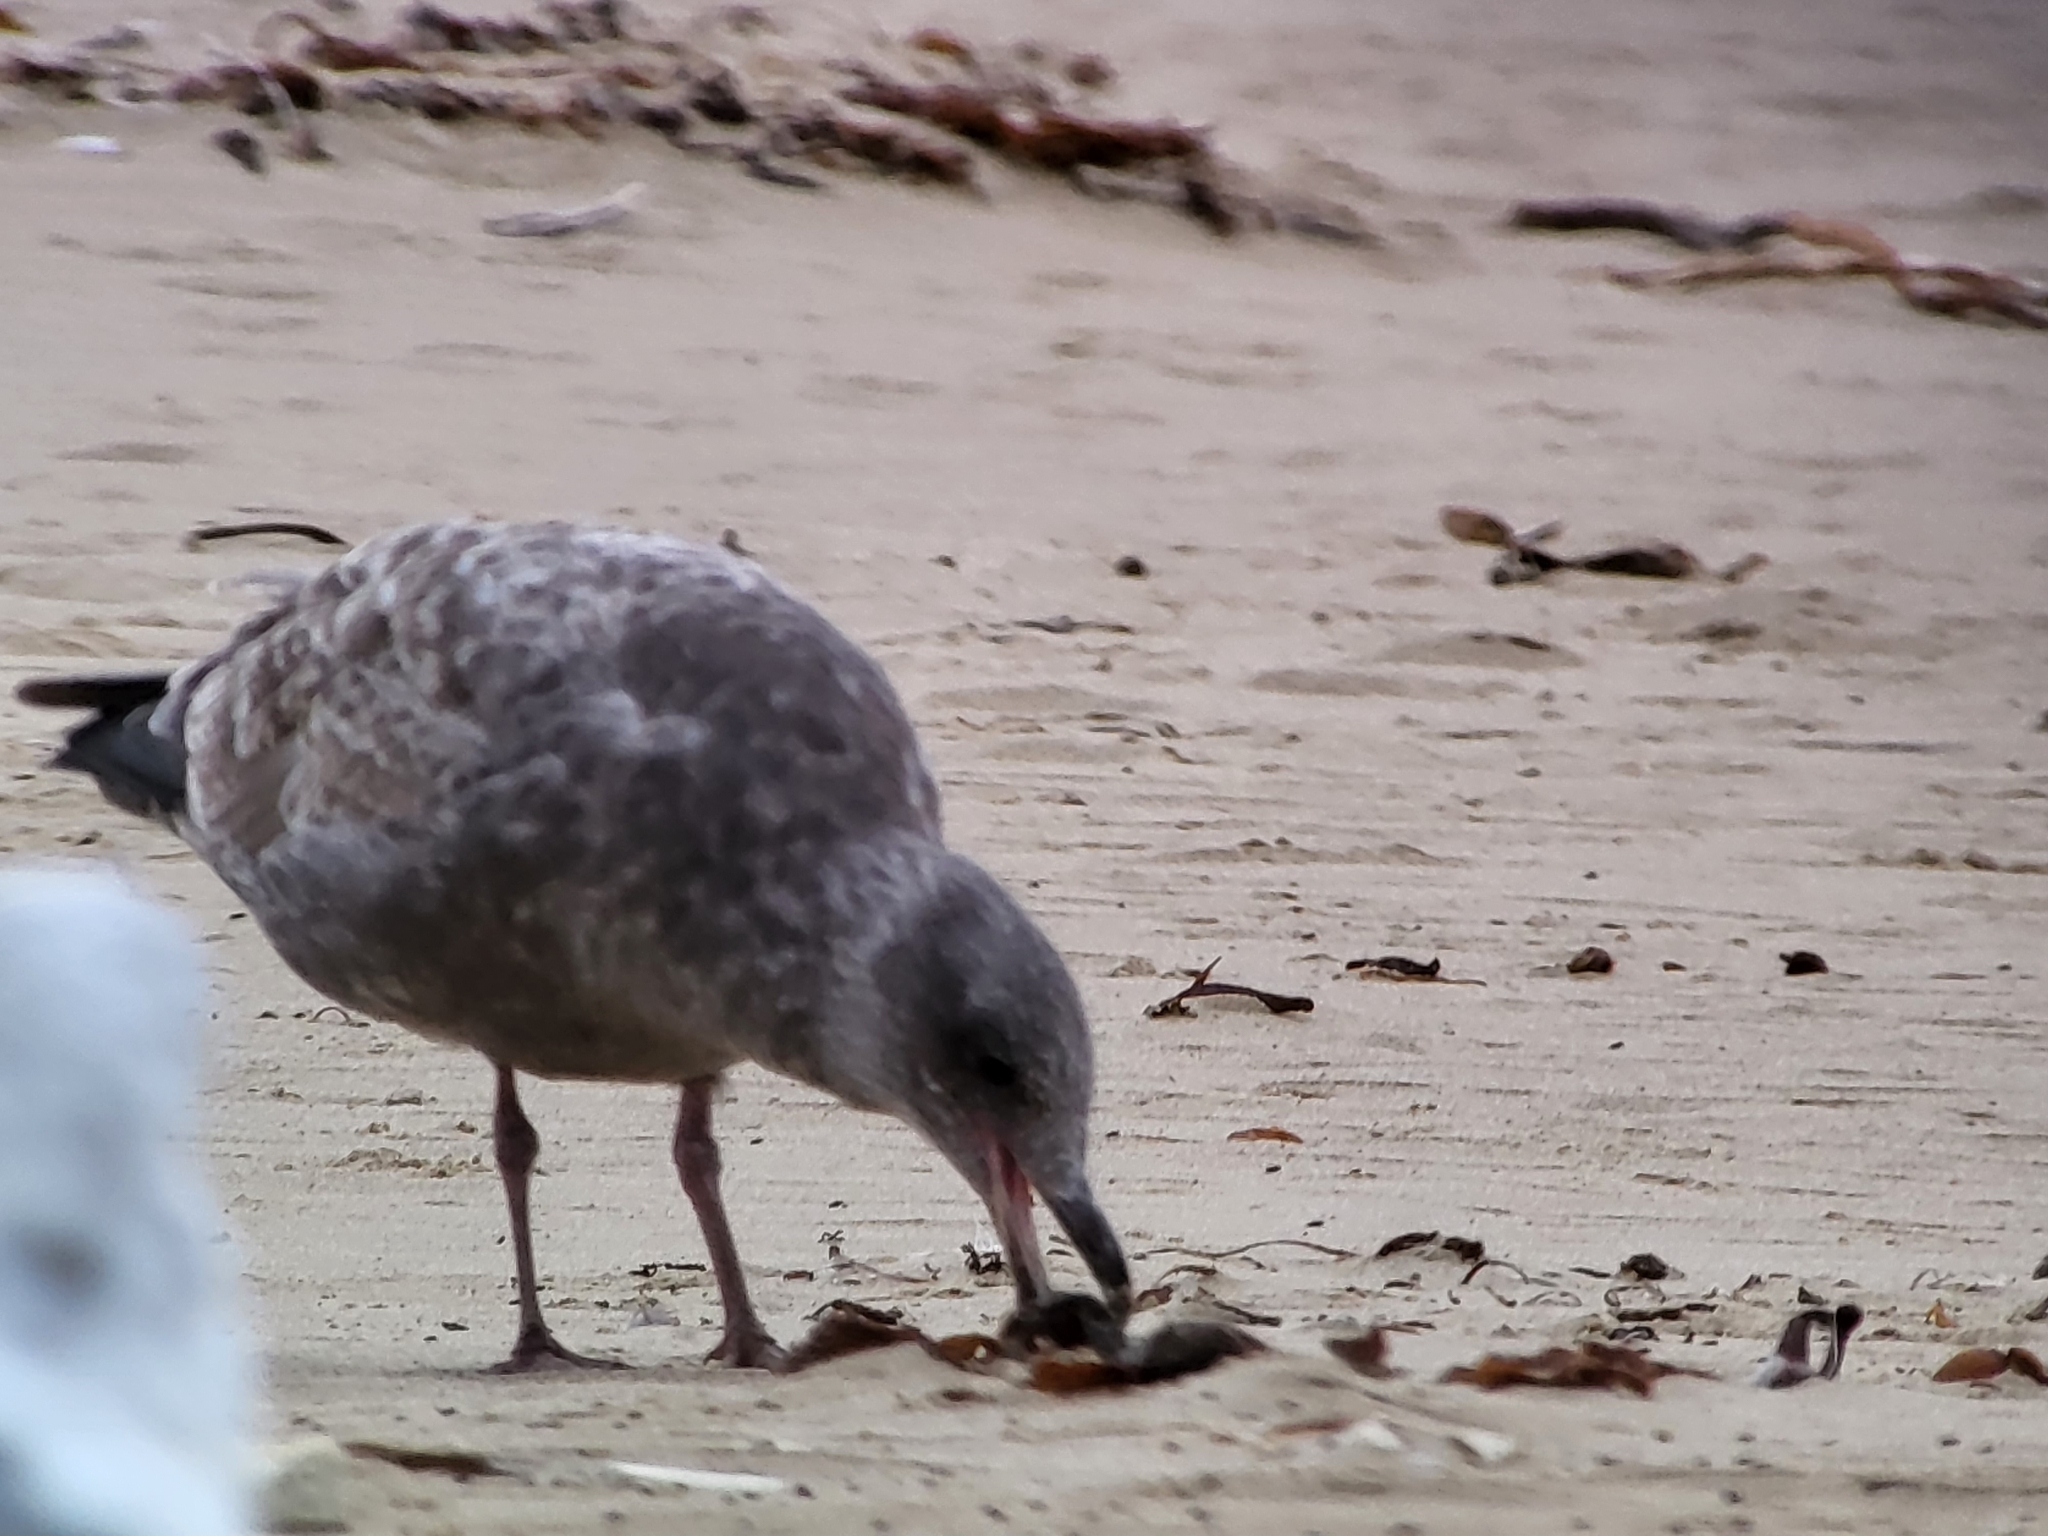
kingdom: Animalia
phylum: Chordata
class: Aves
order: Charadriiformes
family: Laridae
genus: Larus
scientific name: Larus occidentalis
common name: Western gull
